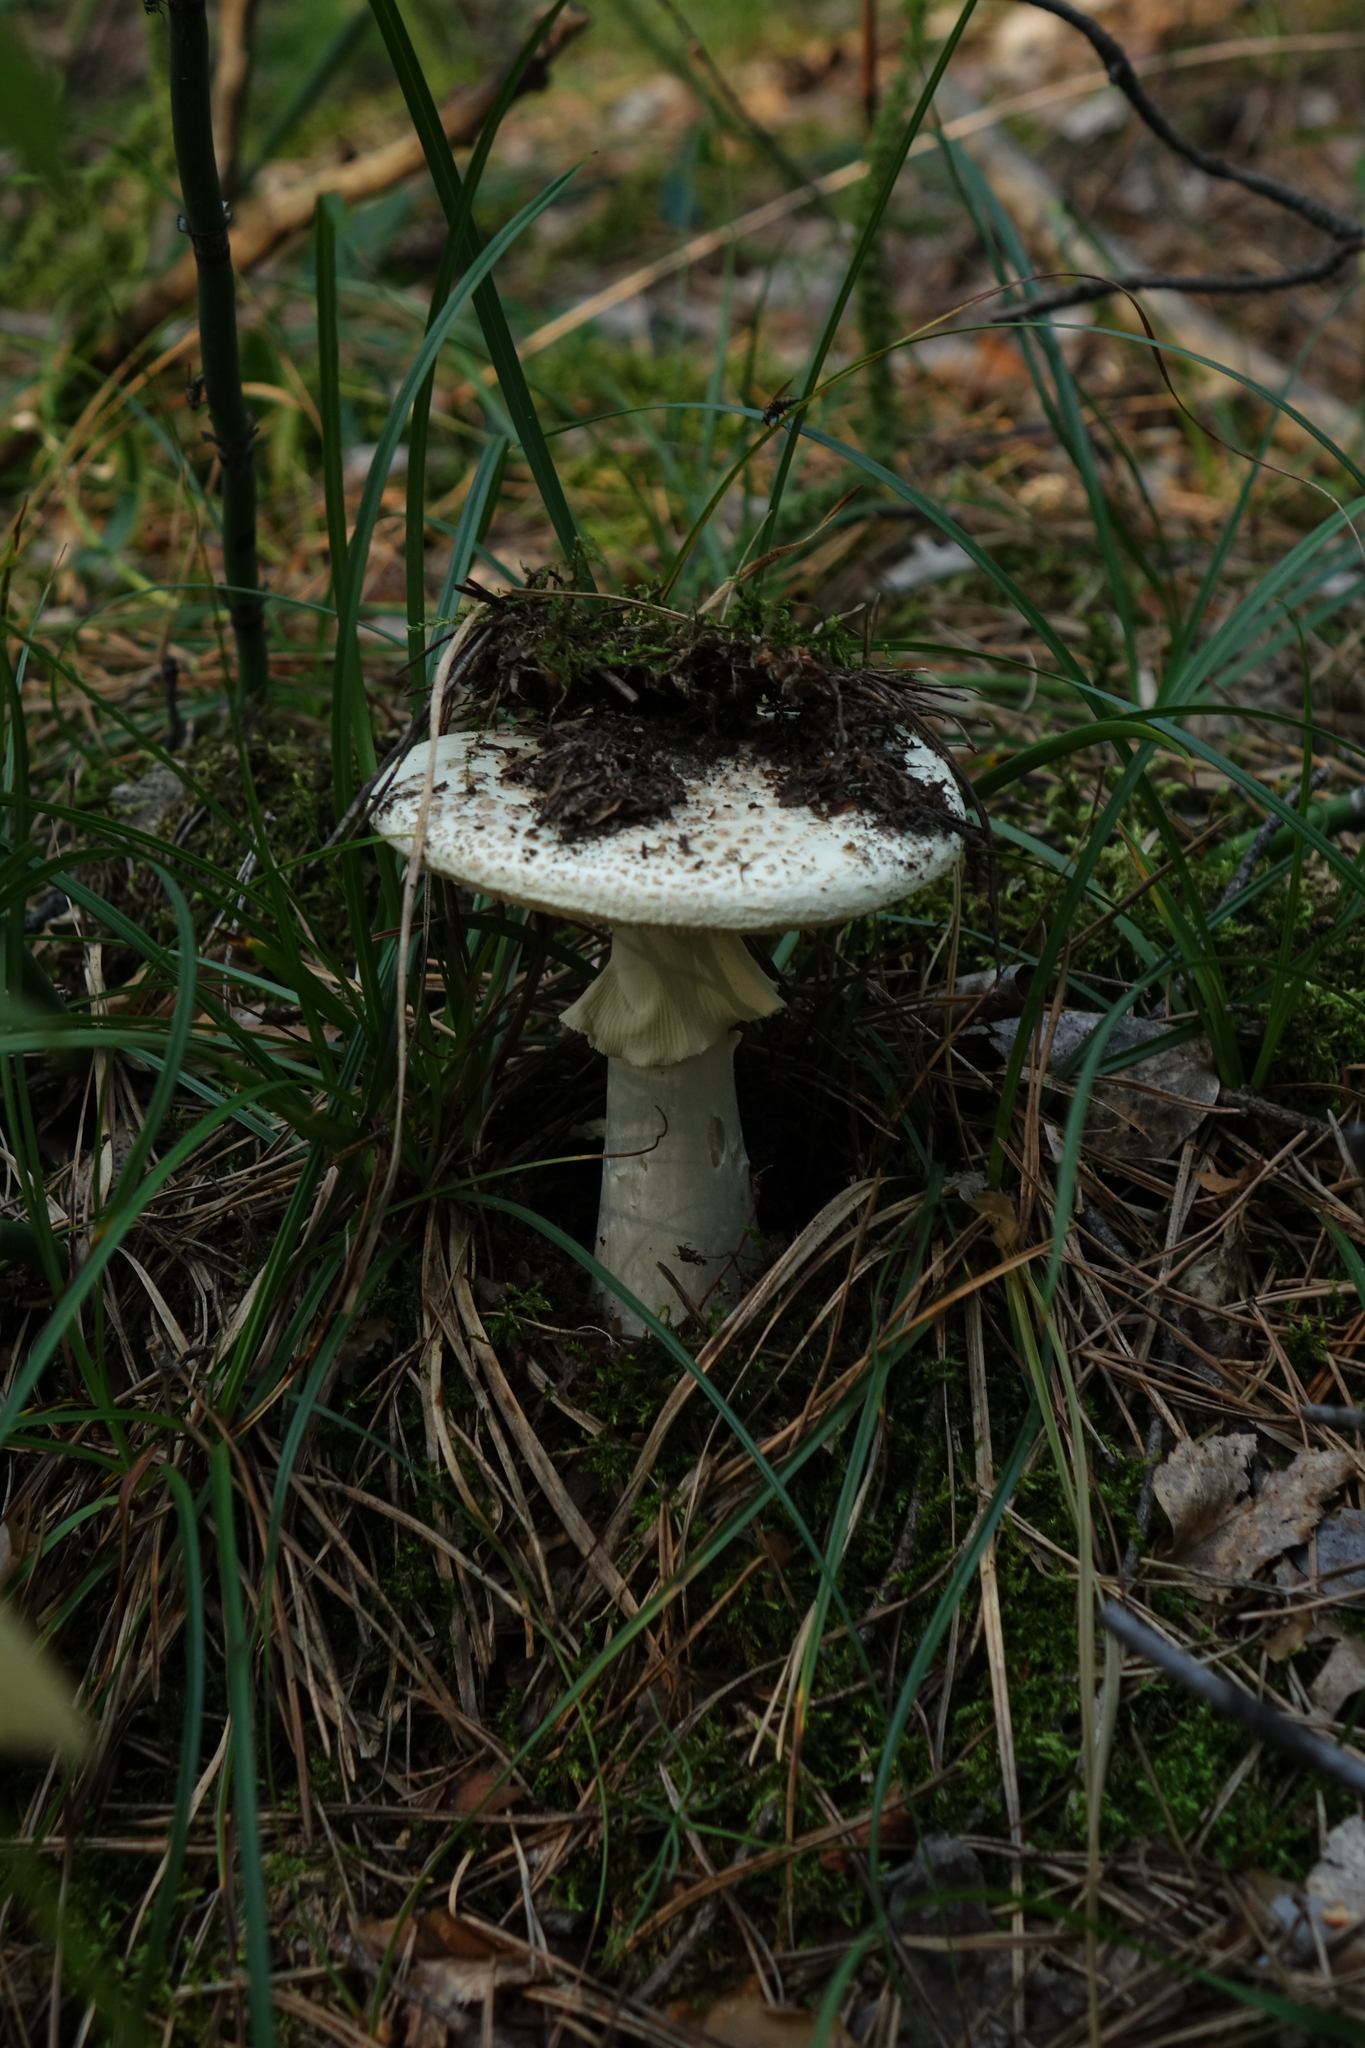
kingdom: Fungi
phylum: Basidiomycota
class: Agaricomycetes
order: Agaricales
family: Amanitaceae
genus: Amanita
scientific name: Amanita citrina
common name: False death-cap
